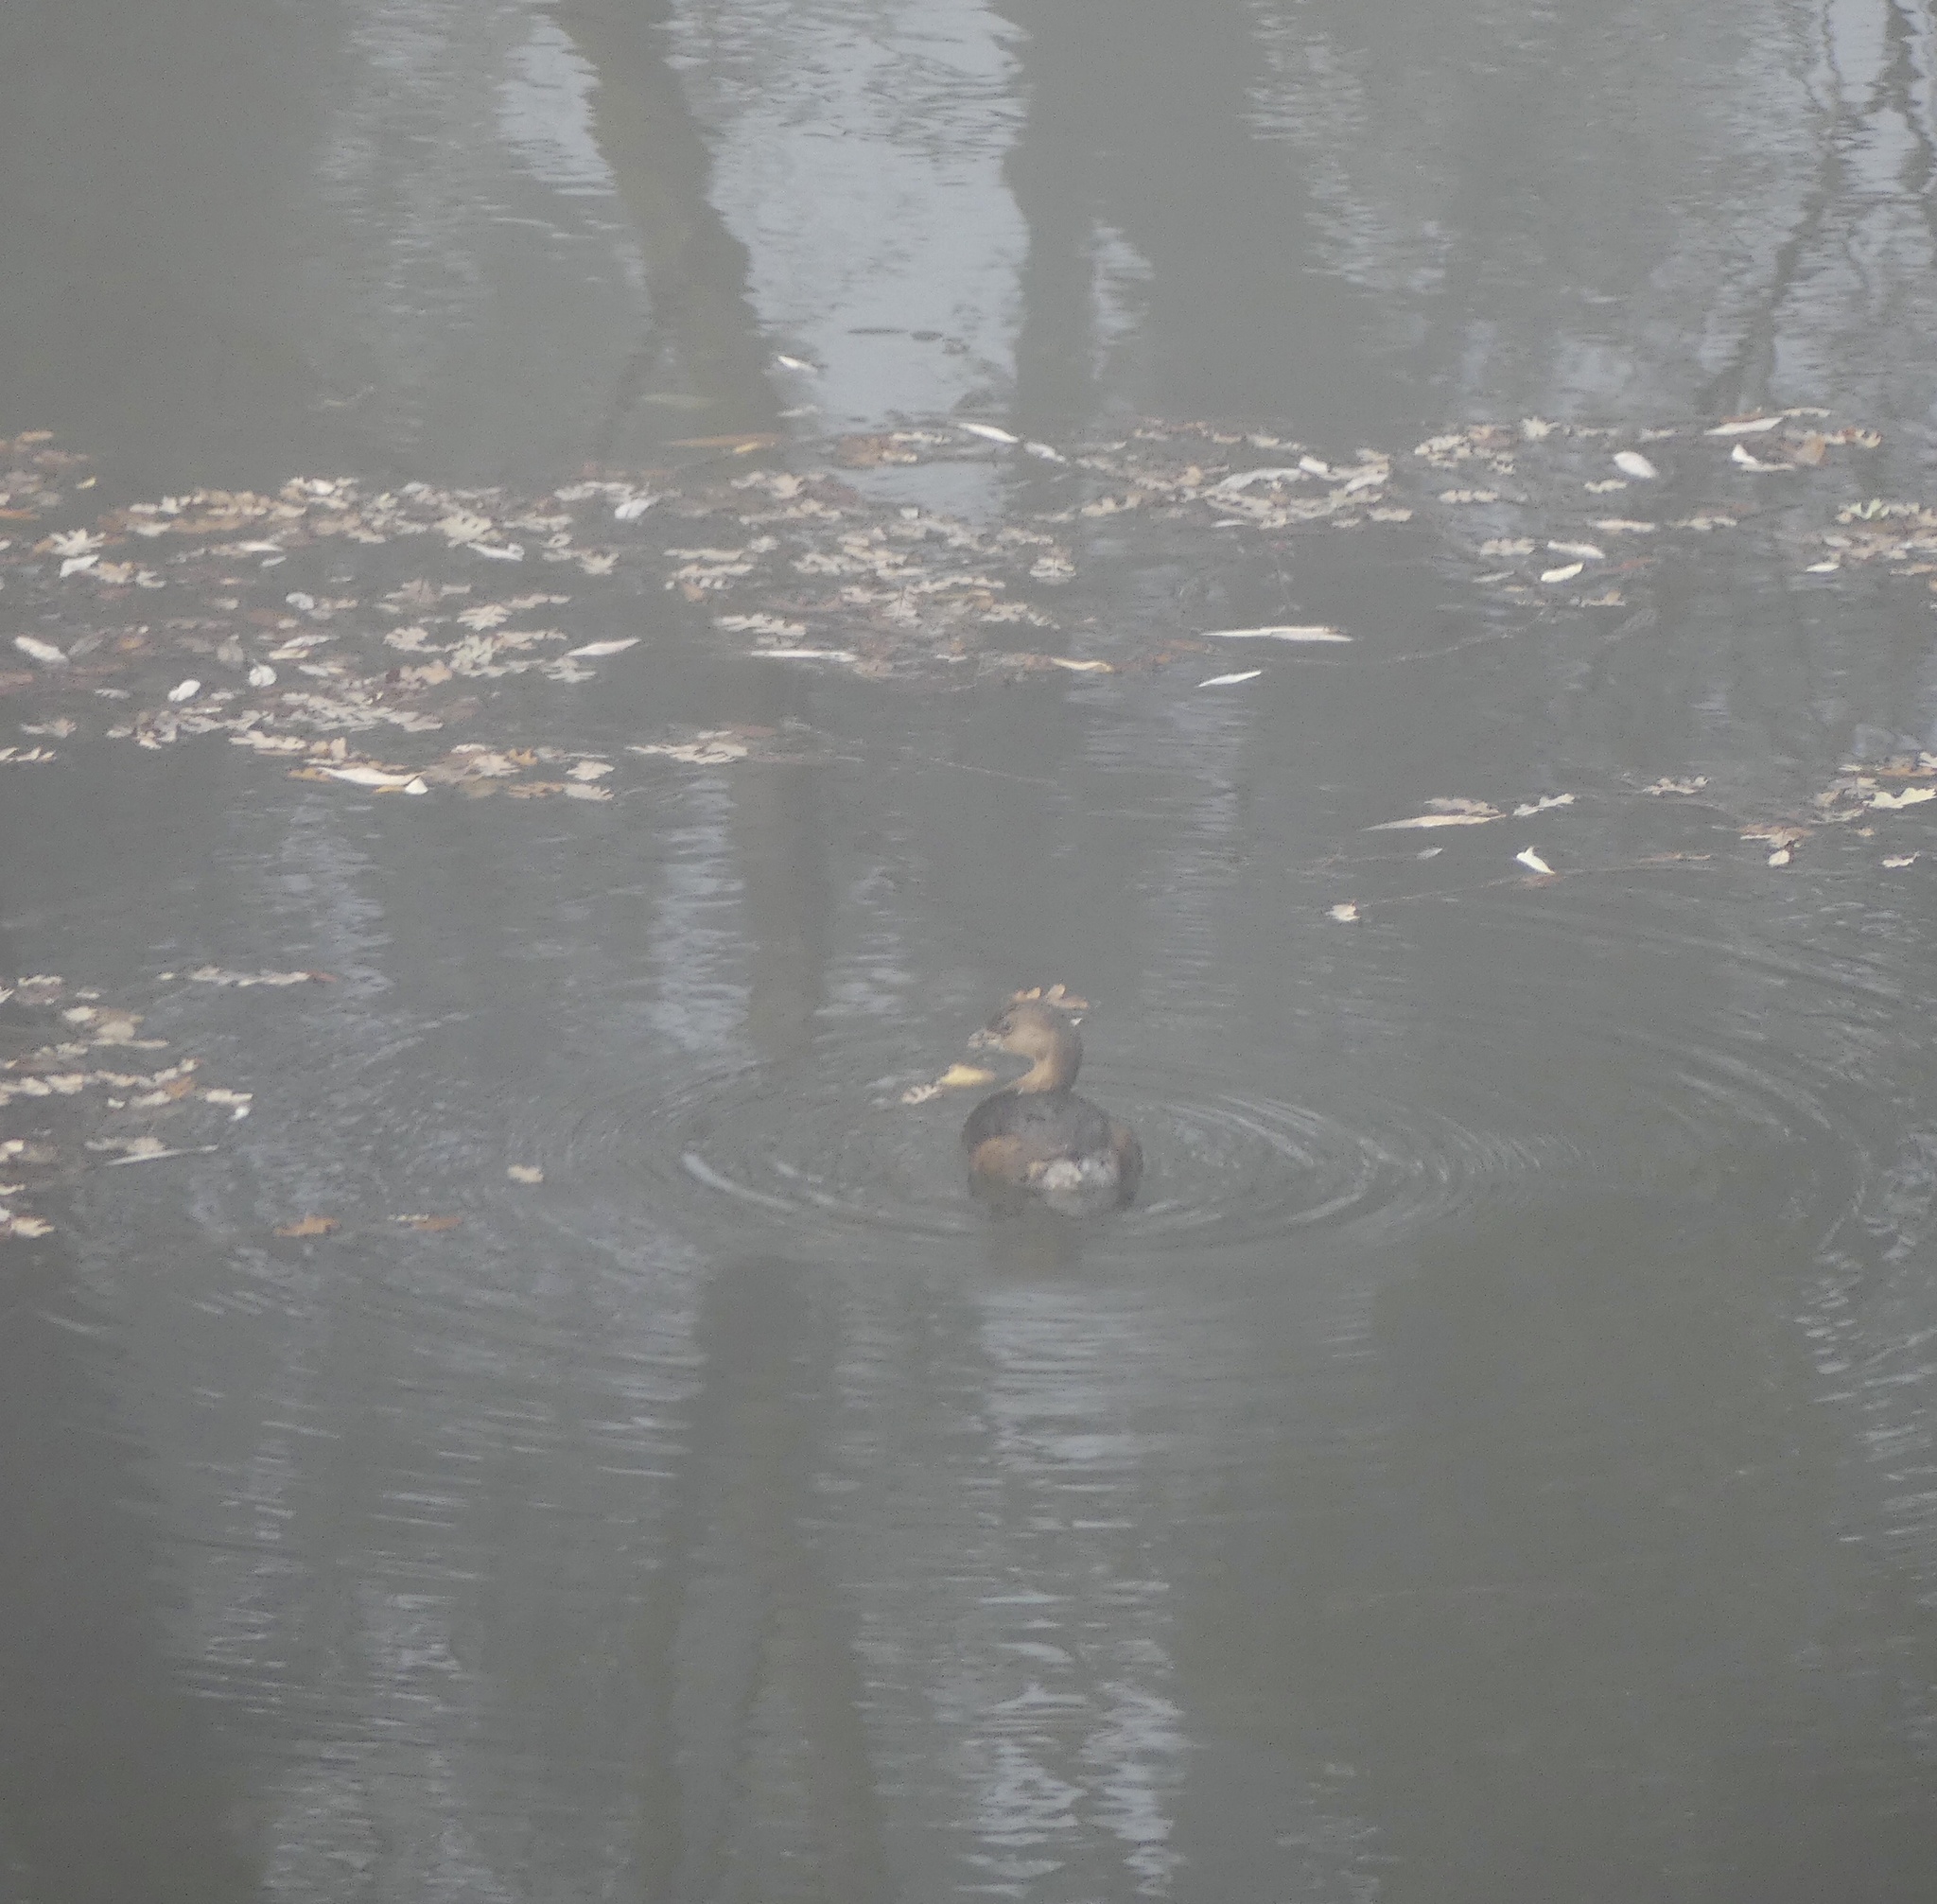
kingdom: Animalia
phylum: Chordata
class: Aves
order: Podicipediformes
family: Podicipedidae
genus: Podilymbus
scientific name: Podilymbus podiceps
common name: Pied-billed grebe
